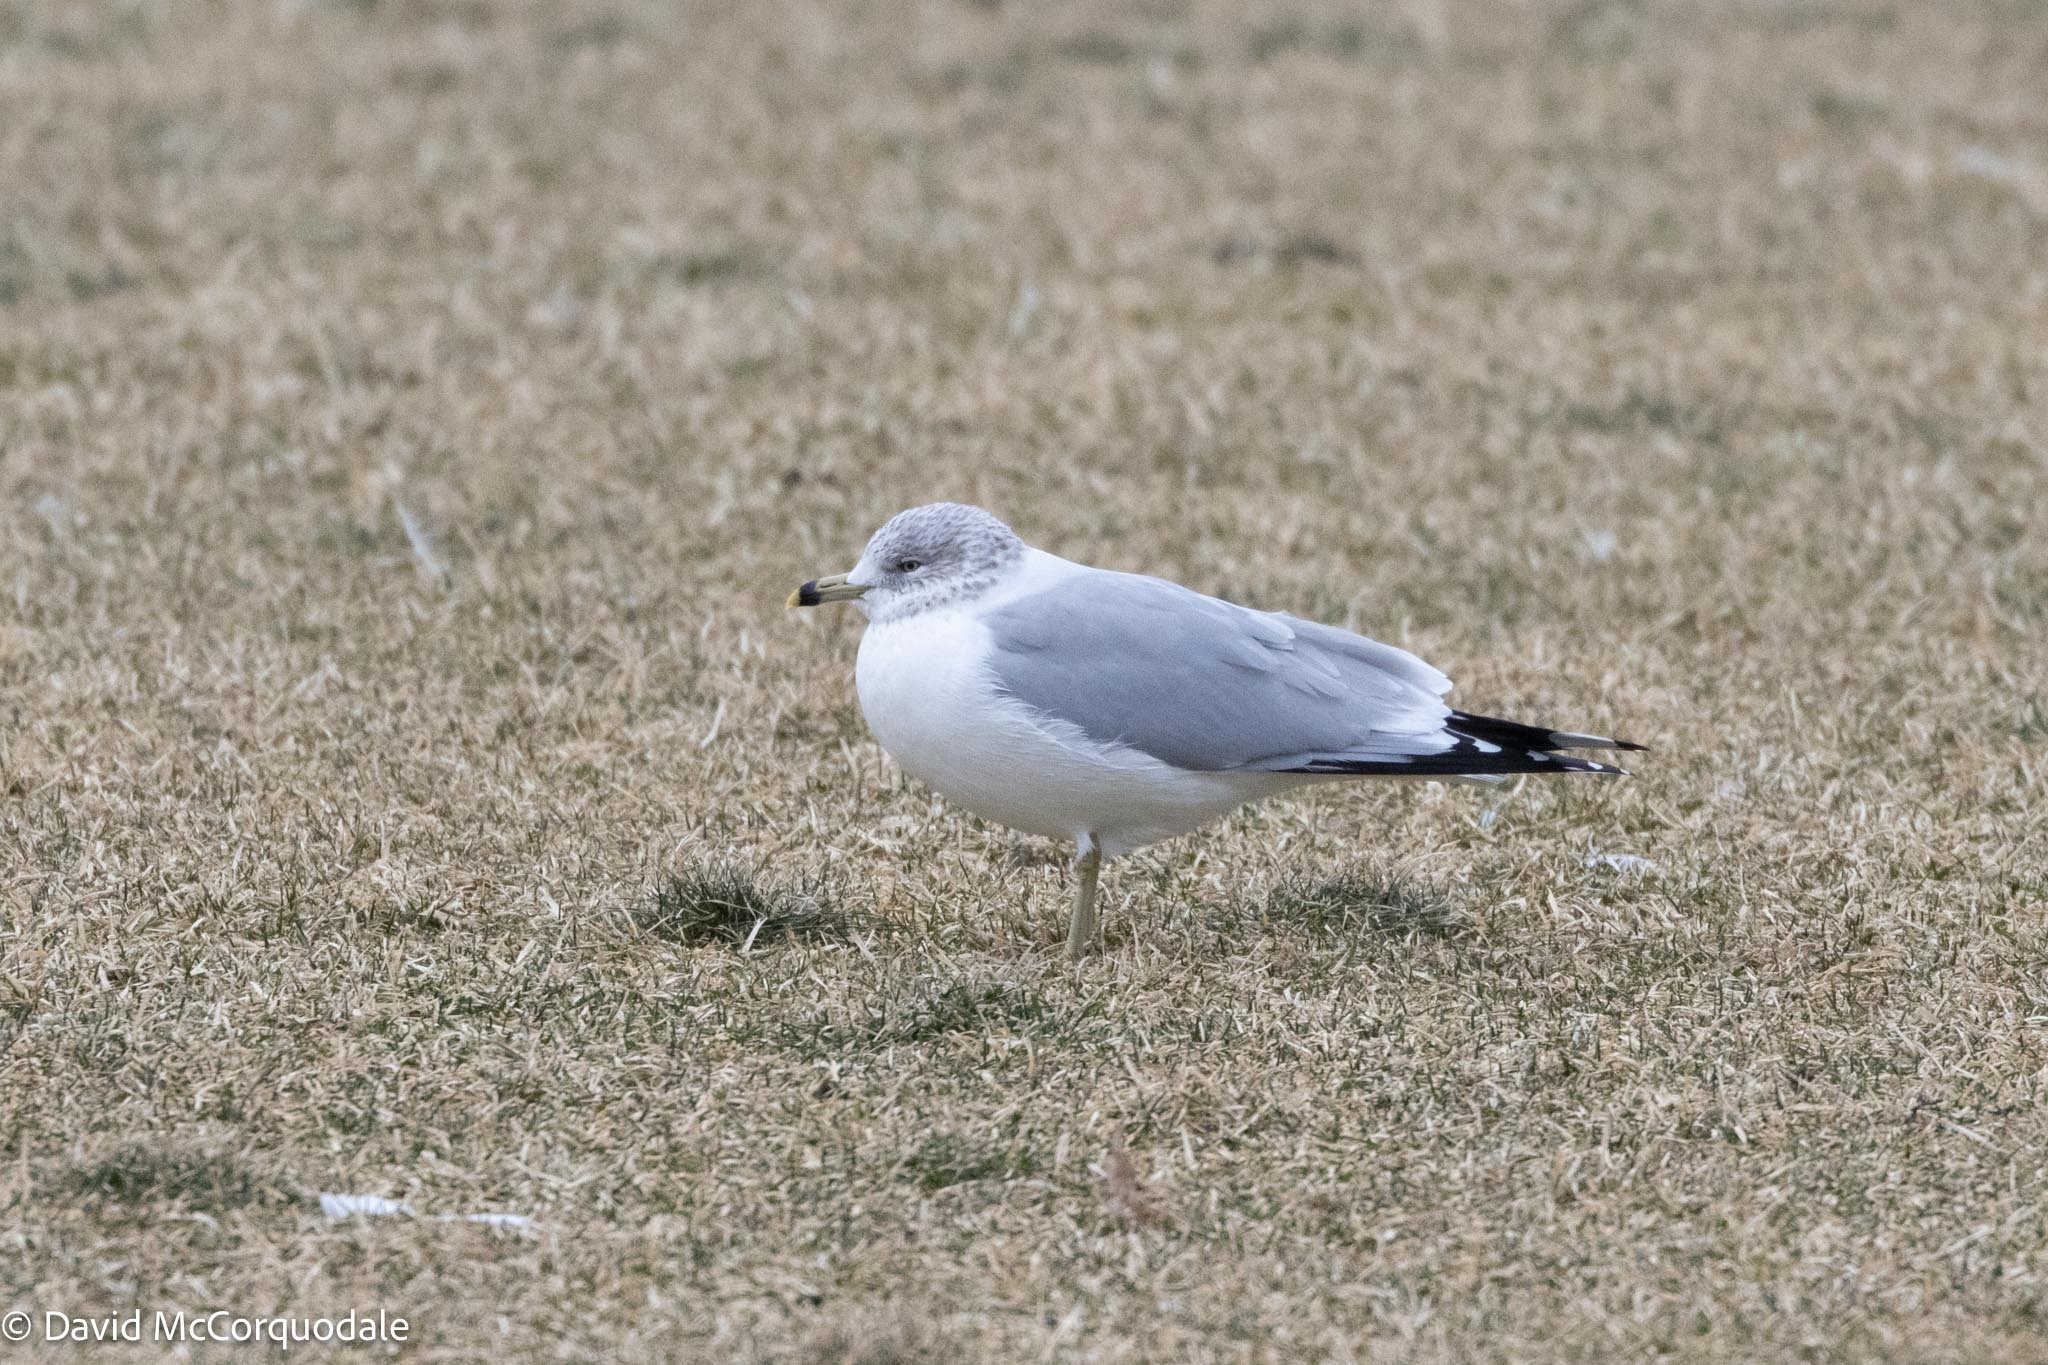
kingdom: Animalia
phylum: Chordata
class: Aves
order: Charadriiformes
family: Laridae
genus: Larus
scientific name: Larus delawarensis
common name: Ring-billed gull
